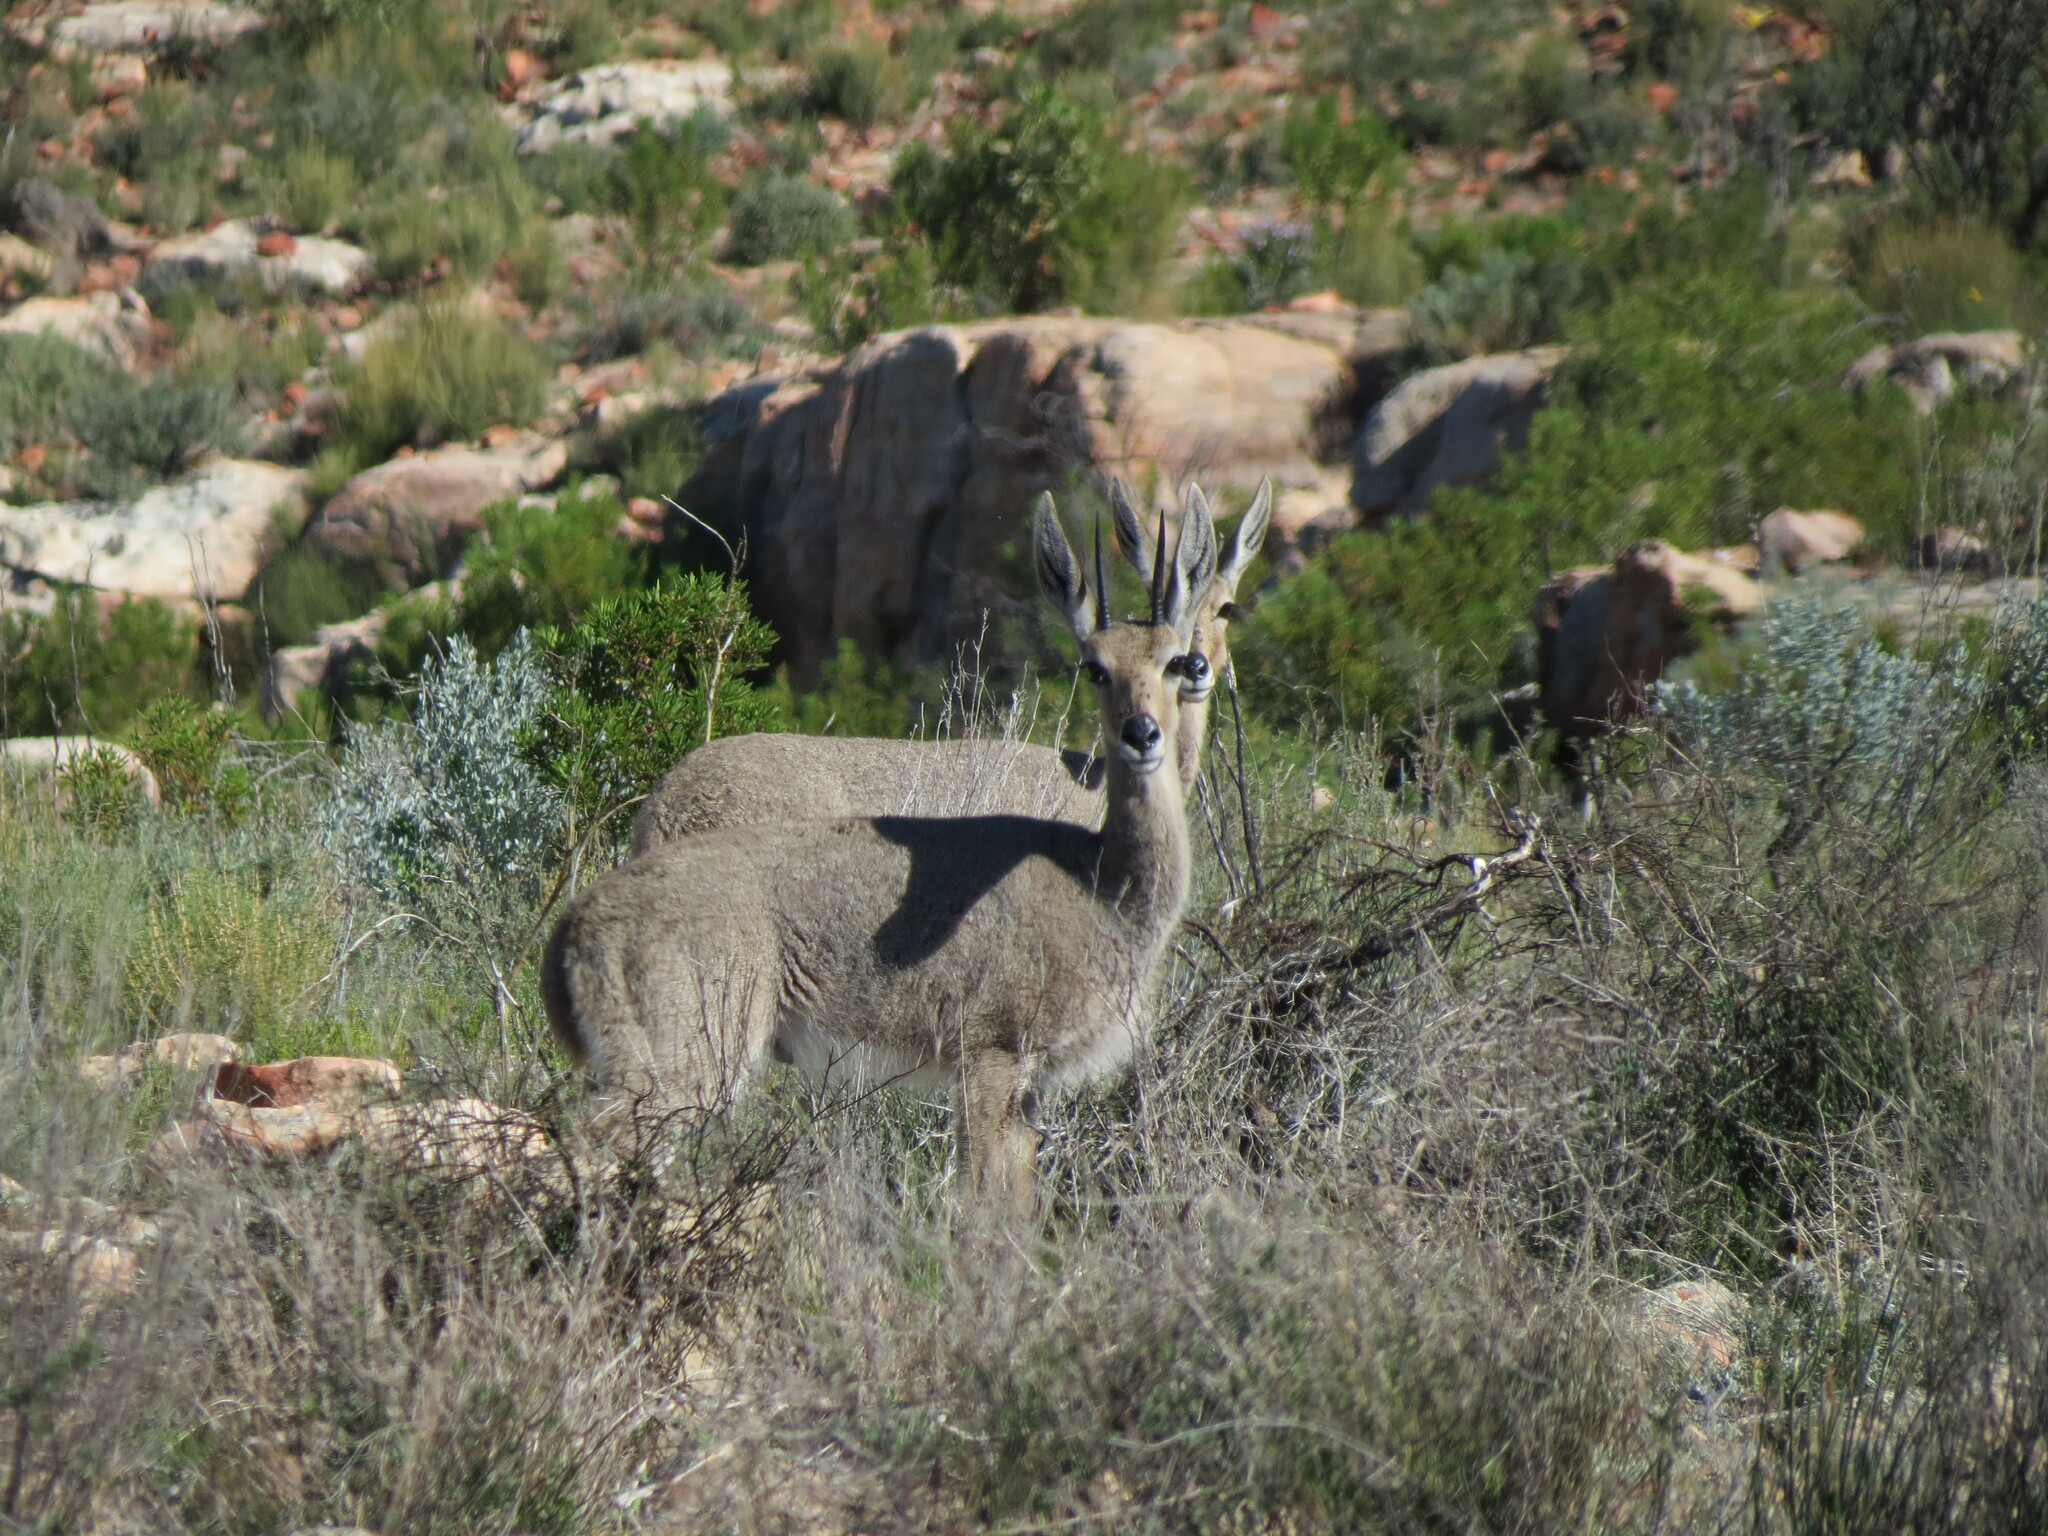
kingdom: Animalia
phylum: Chordata
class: Mammalia
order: Artiodactyla
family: Bovidae
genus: Pelea
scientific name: Pelea capreolus
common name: Common rhebok
